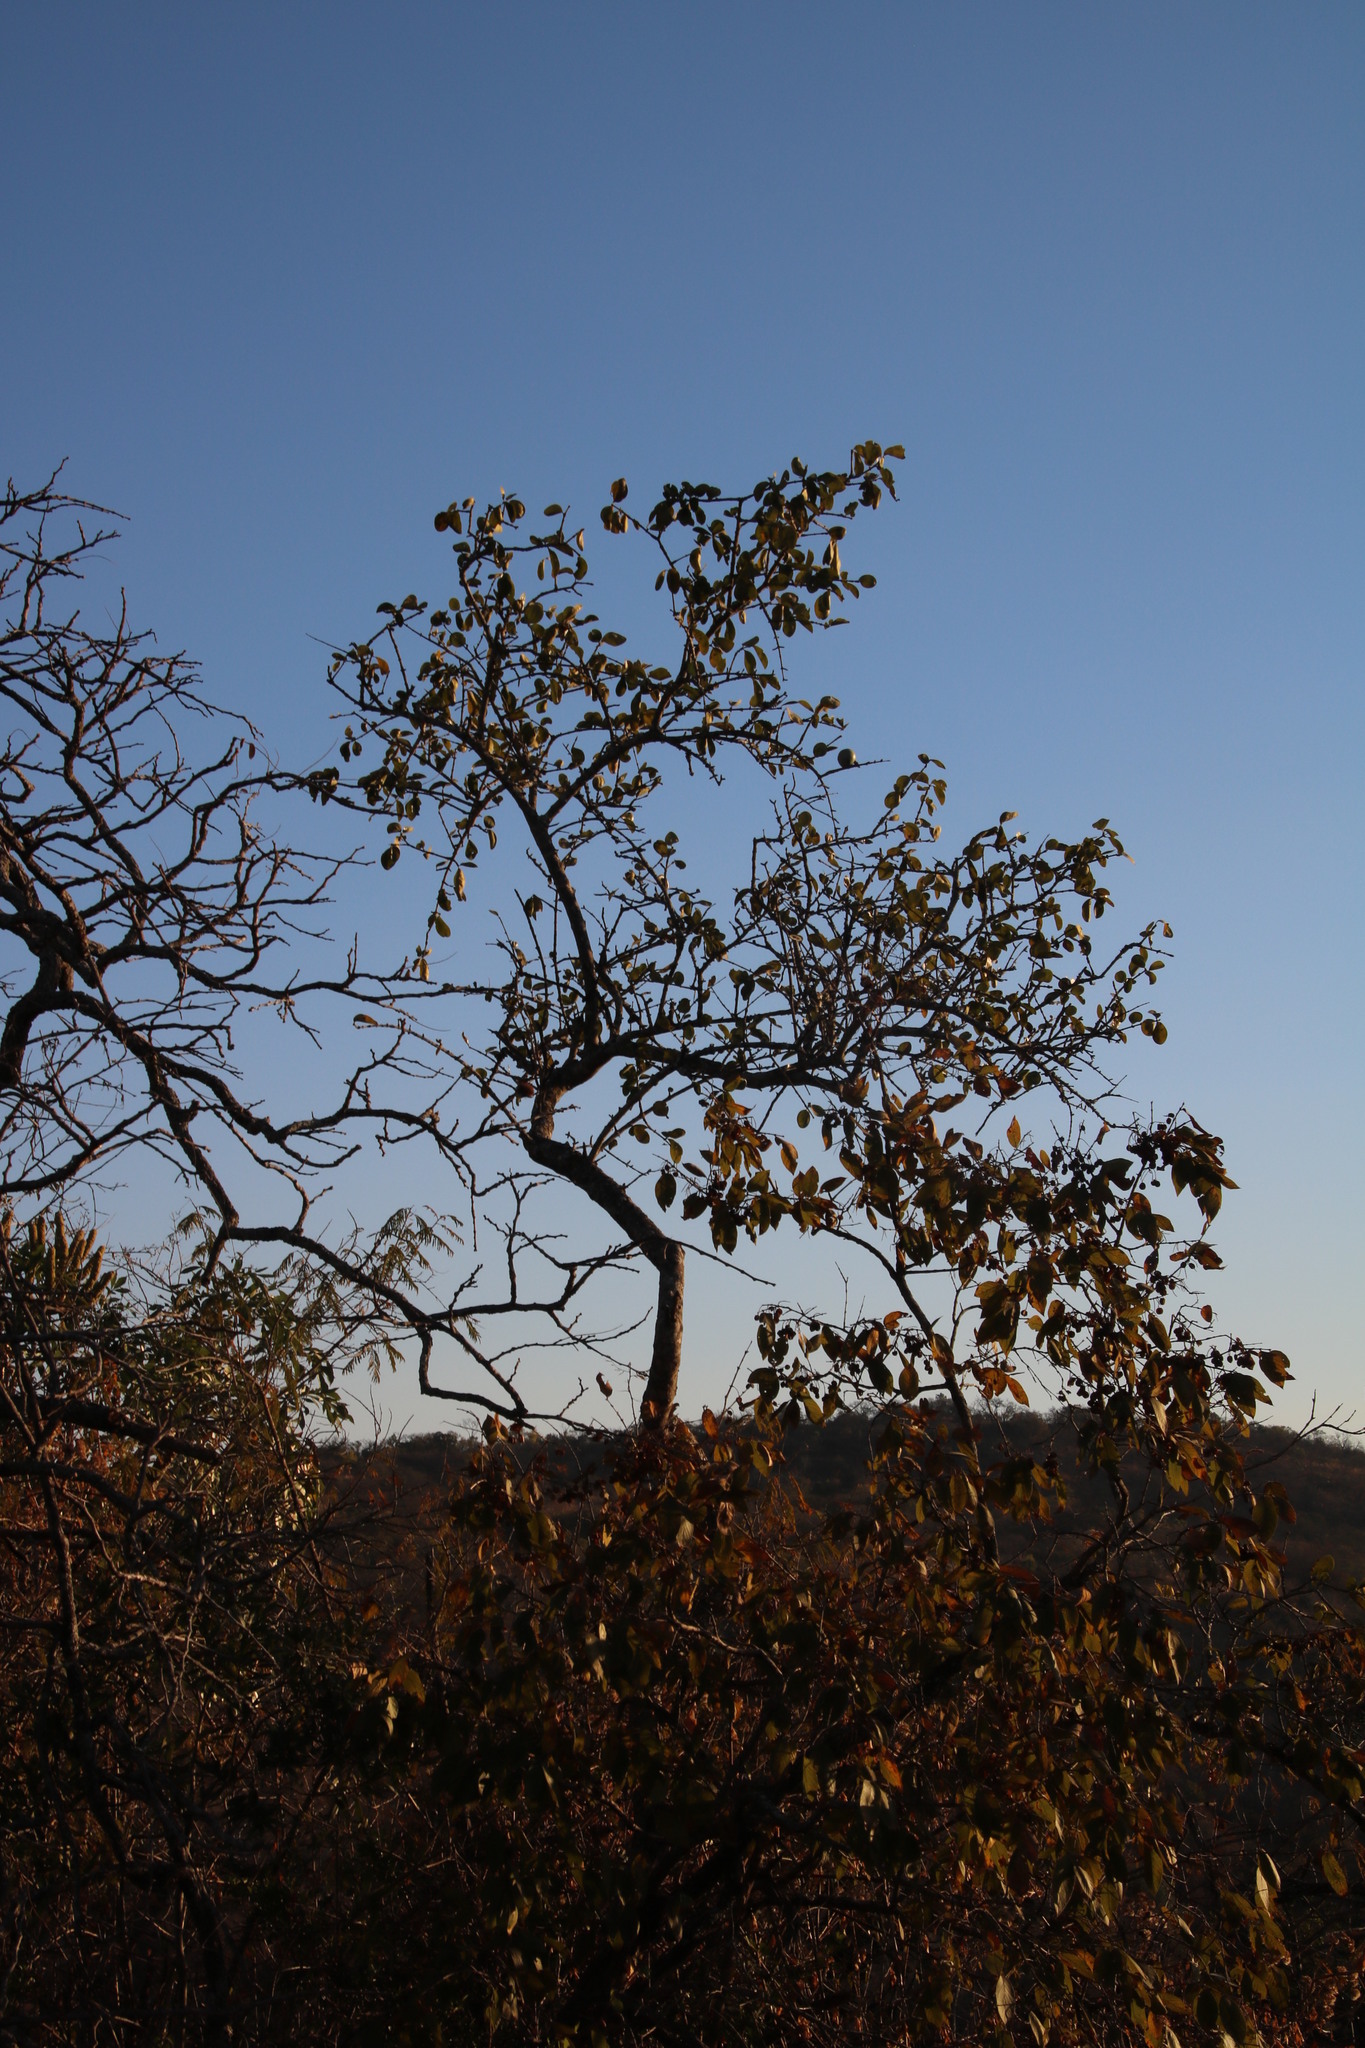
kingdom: Plantae
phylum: Tracheophyta
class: Magnoliopsida
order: Gentianales
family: Loganiaceae
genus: Strychnos
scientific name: Strychnos madagascariensis
